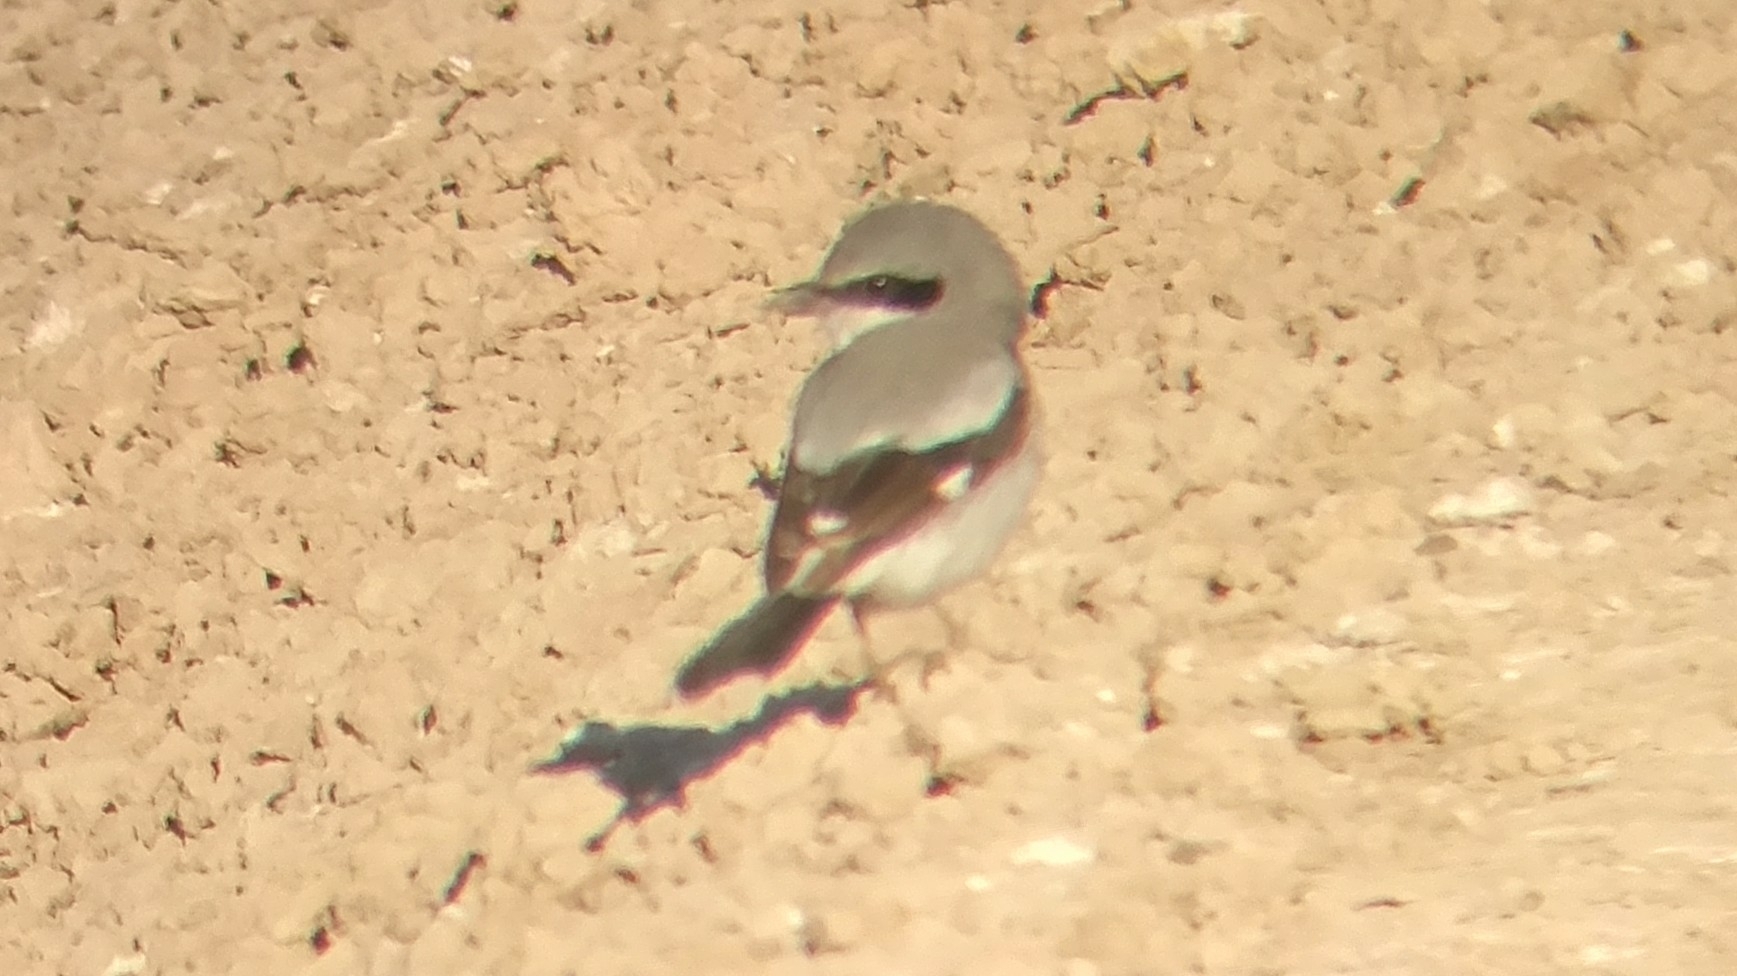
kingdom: Animalia
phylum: Chordata
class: Aves
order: Passeriformes
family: Laniidae
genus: Lanius
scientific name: Lanius ludovicianus
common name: Loggerhead shrike
